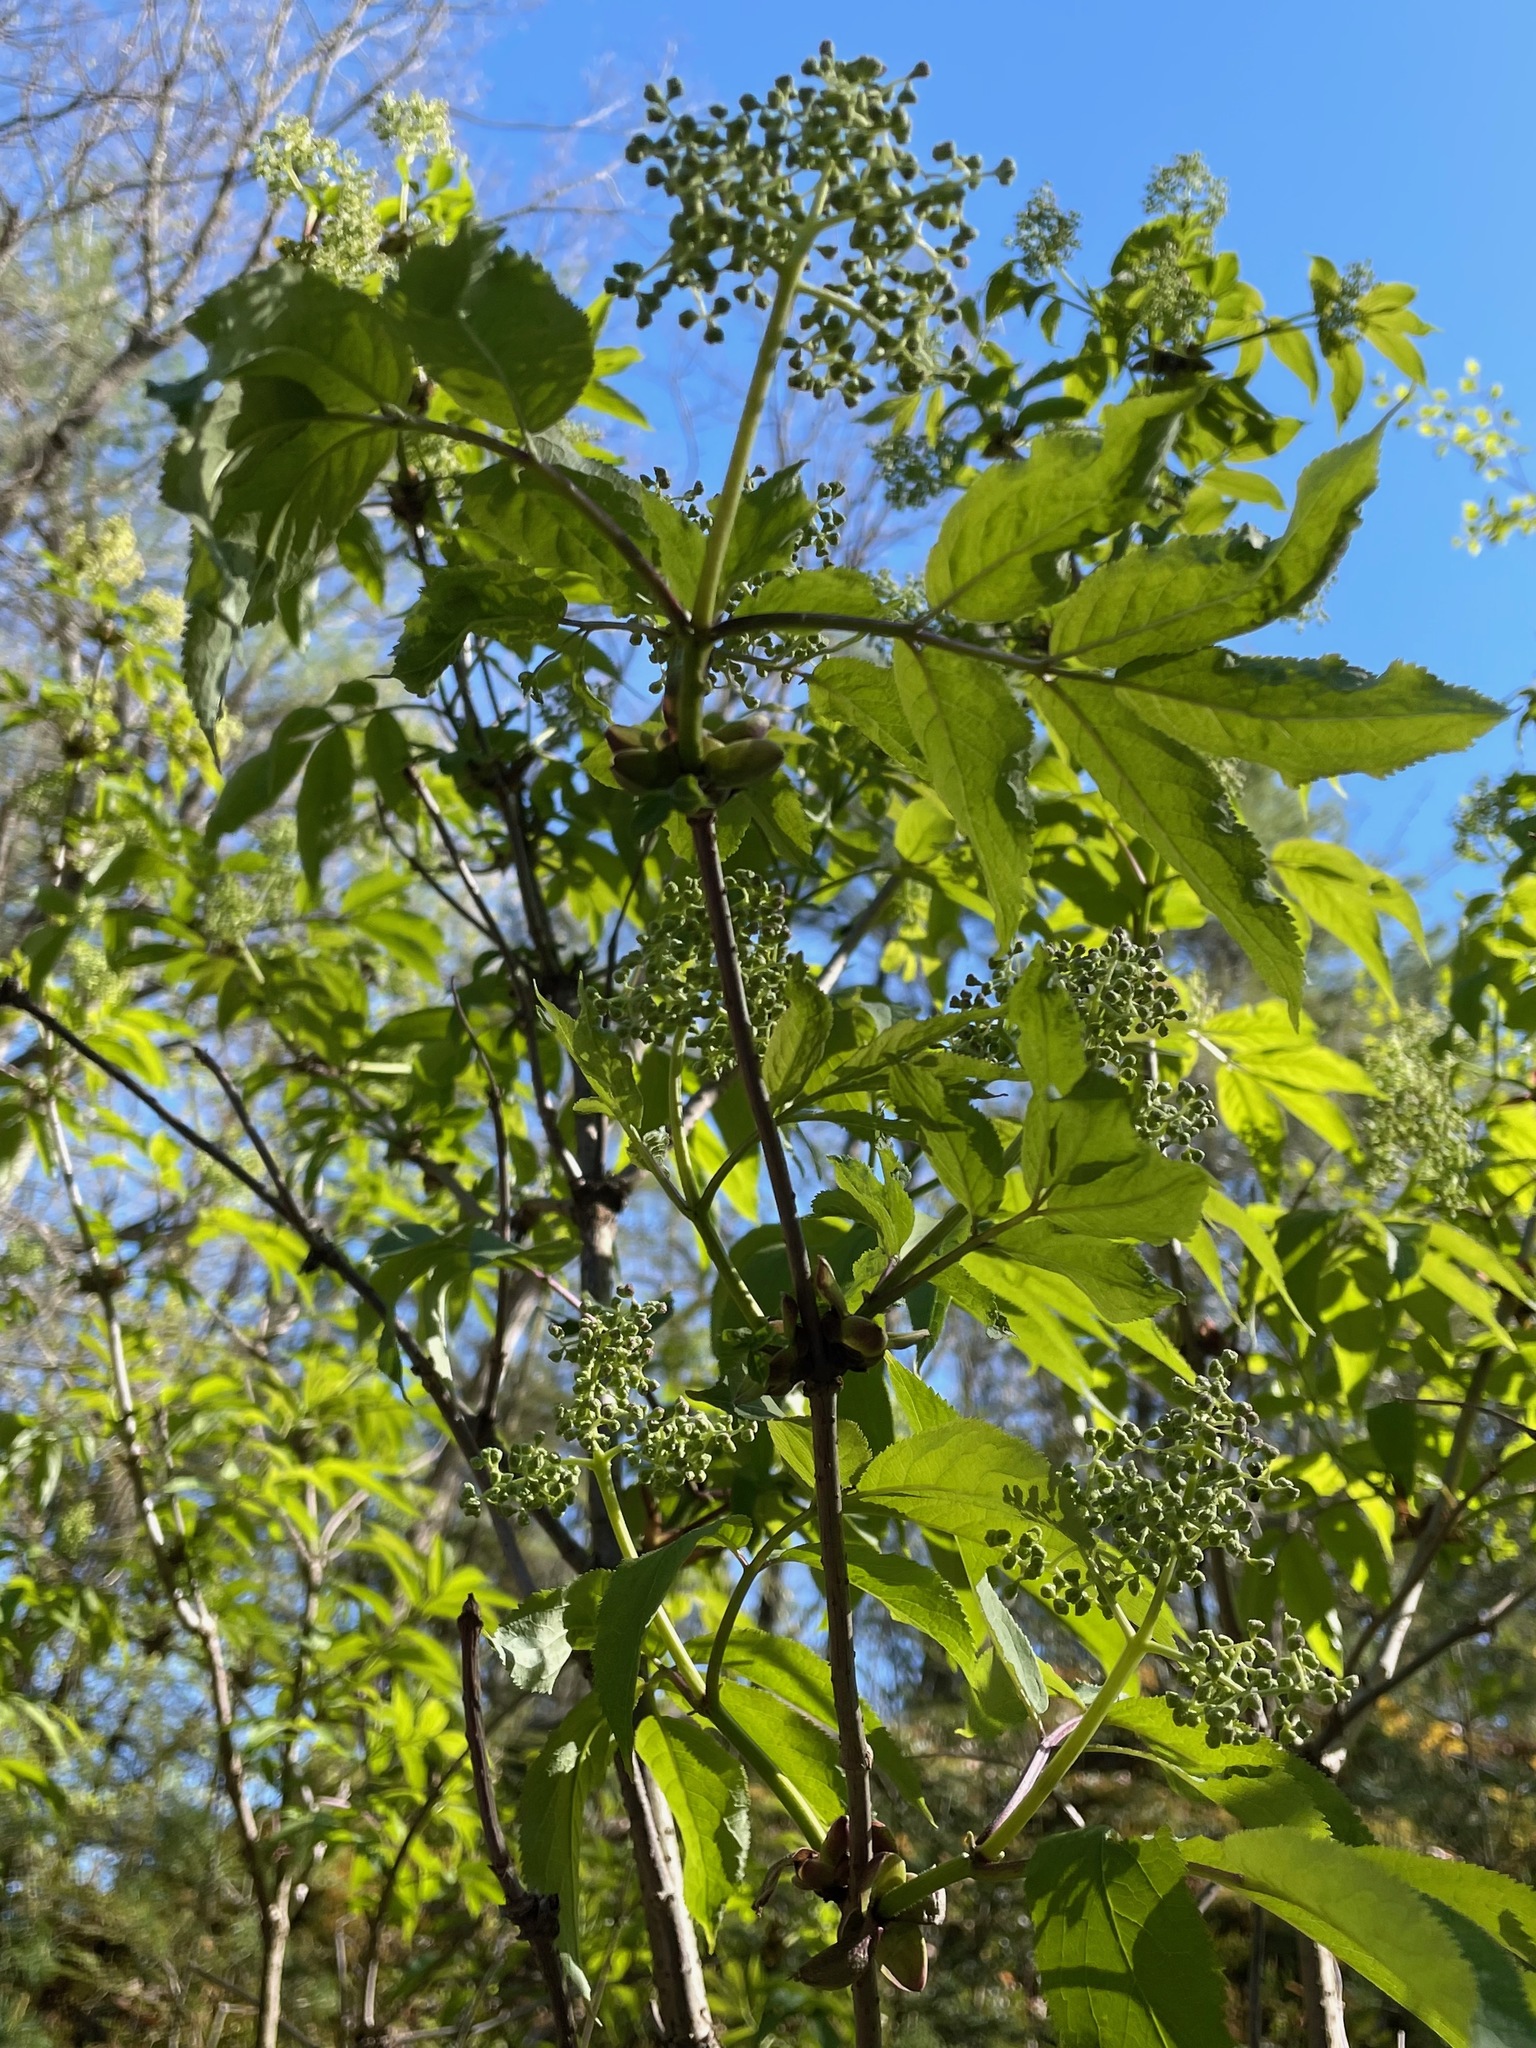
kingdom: Plantae
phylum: Tracheophyta
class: Magnoliopsida
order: Dipsacales
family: Viburnaceae
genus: Sambucus
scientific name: Sambucus racemosa
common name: Red-berried elder
